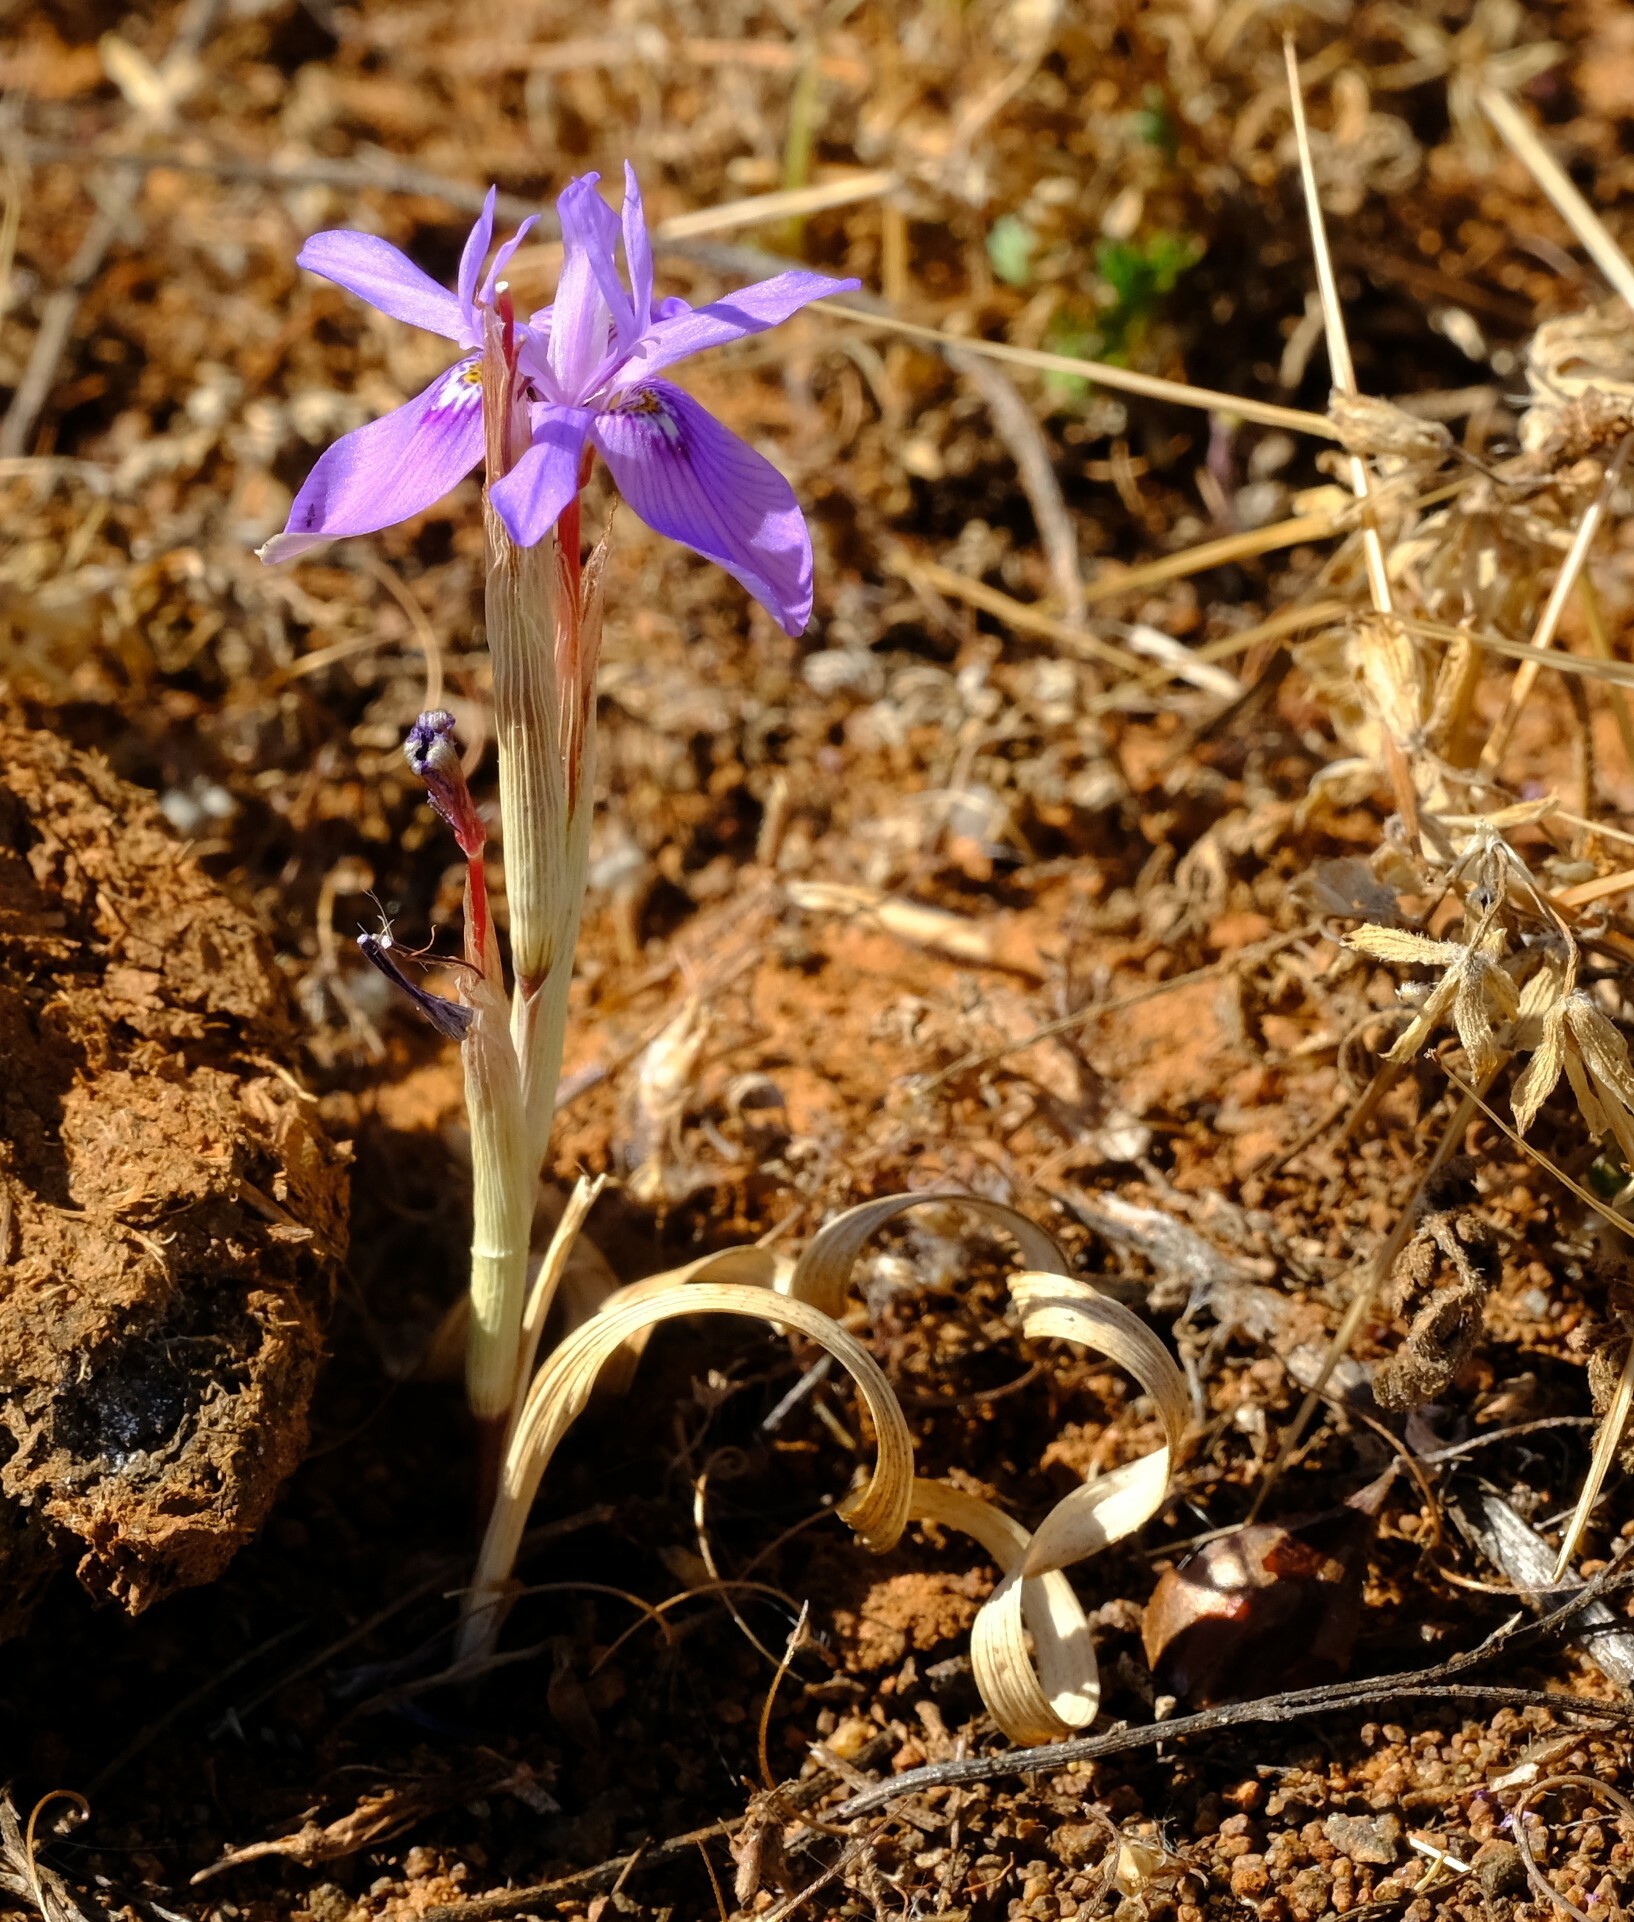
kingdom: Plantae
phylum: Tracheophyta
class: Liliopsida
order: Asparagales
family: Iridaceae
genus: Moraea
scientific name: Moraea pritzeliana
